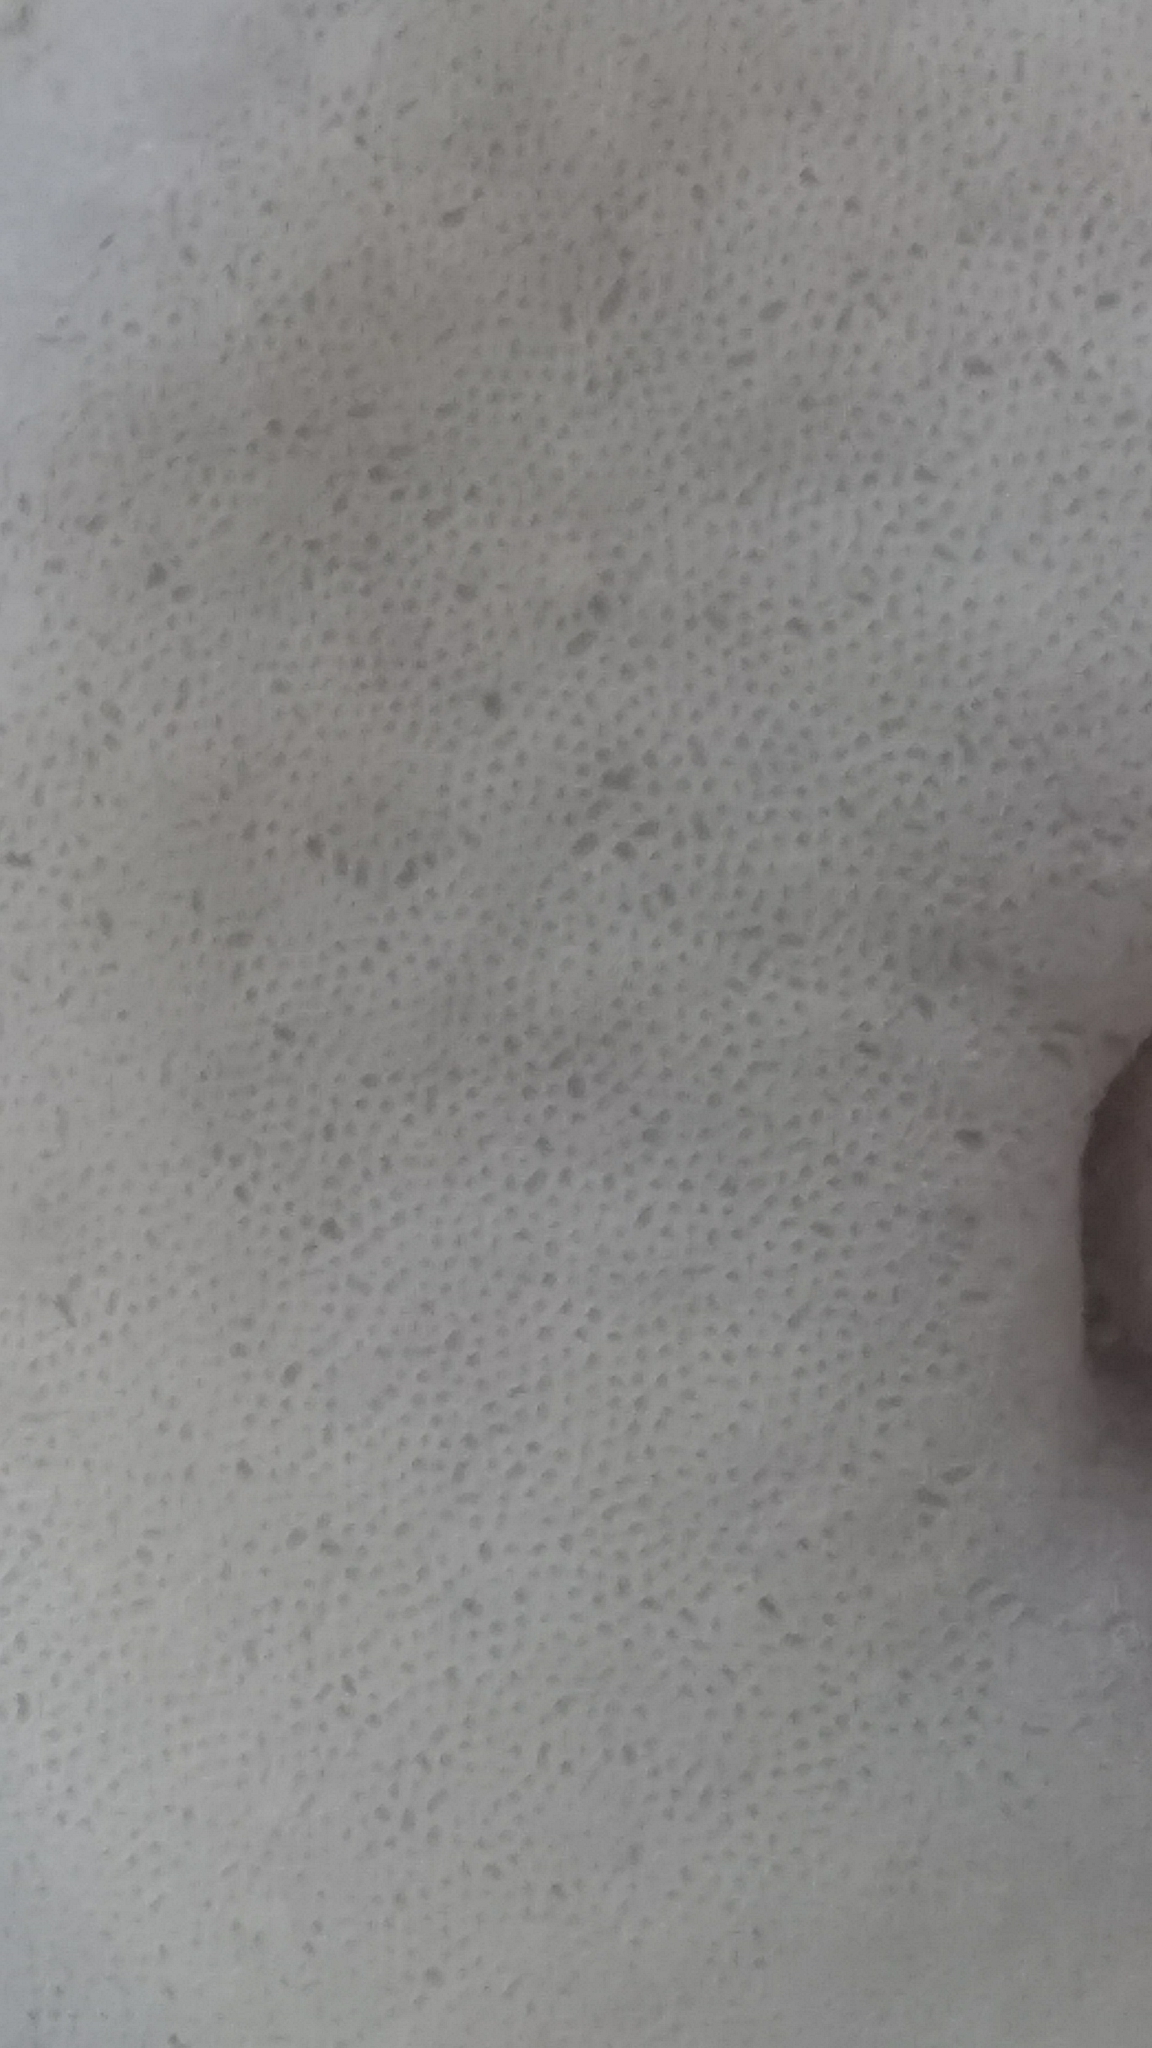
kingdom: Fungi
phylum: Basidiomycota
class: Agaricomycetes
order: Boletales
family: Boletaceae
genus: Boletus
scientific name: Boletus edulis
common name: Cep
